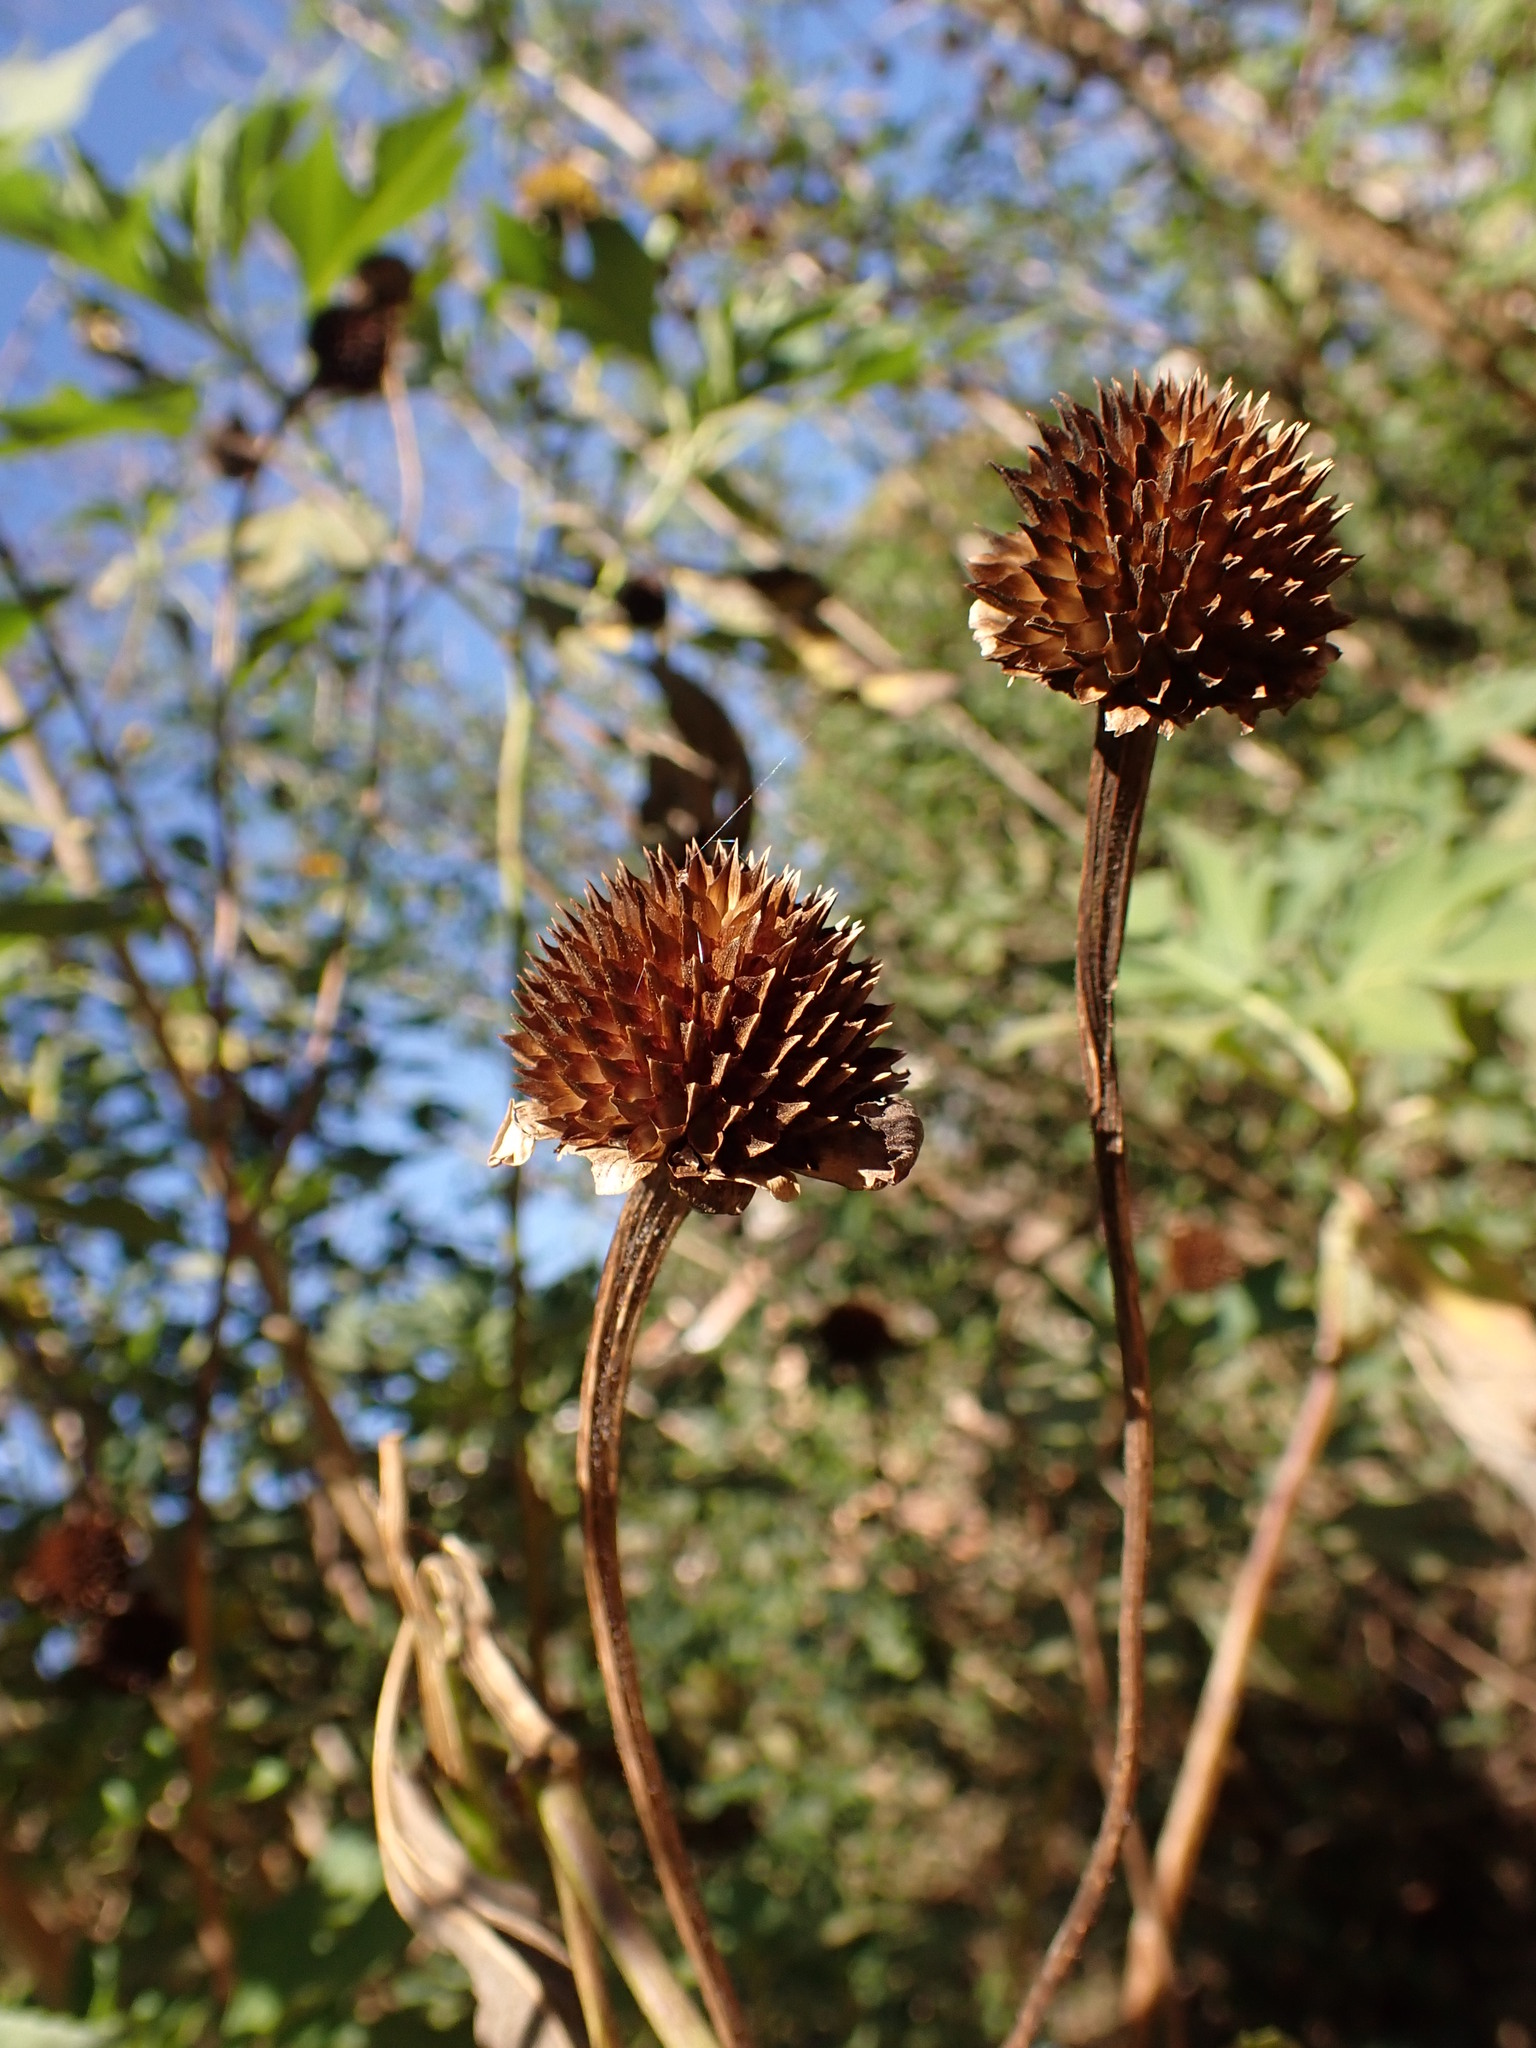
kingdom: Plantae
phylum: Tracheophyta
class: Magnoliopsida
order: Asterales
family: Asteraceae
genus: Tithonia
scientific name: Tithonia diversifolia
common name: Tree marigold
